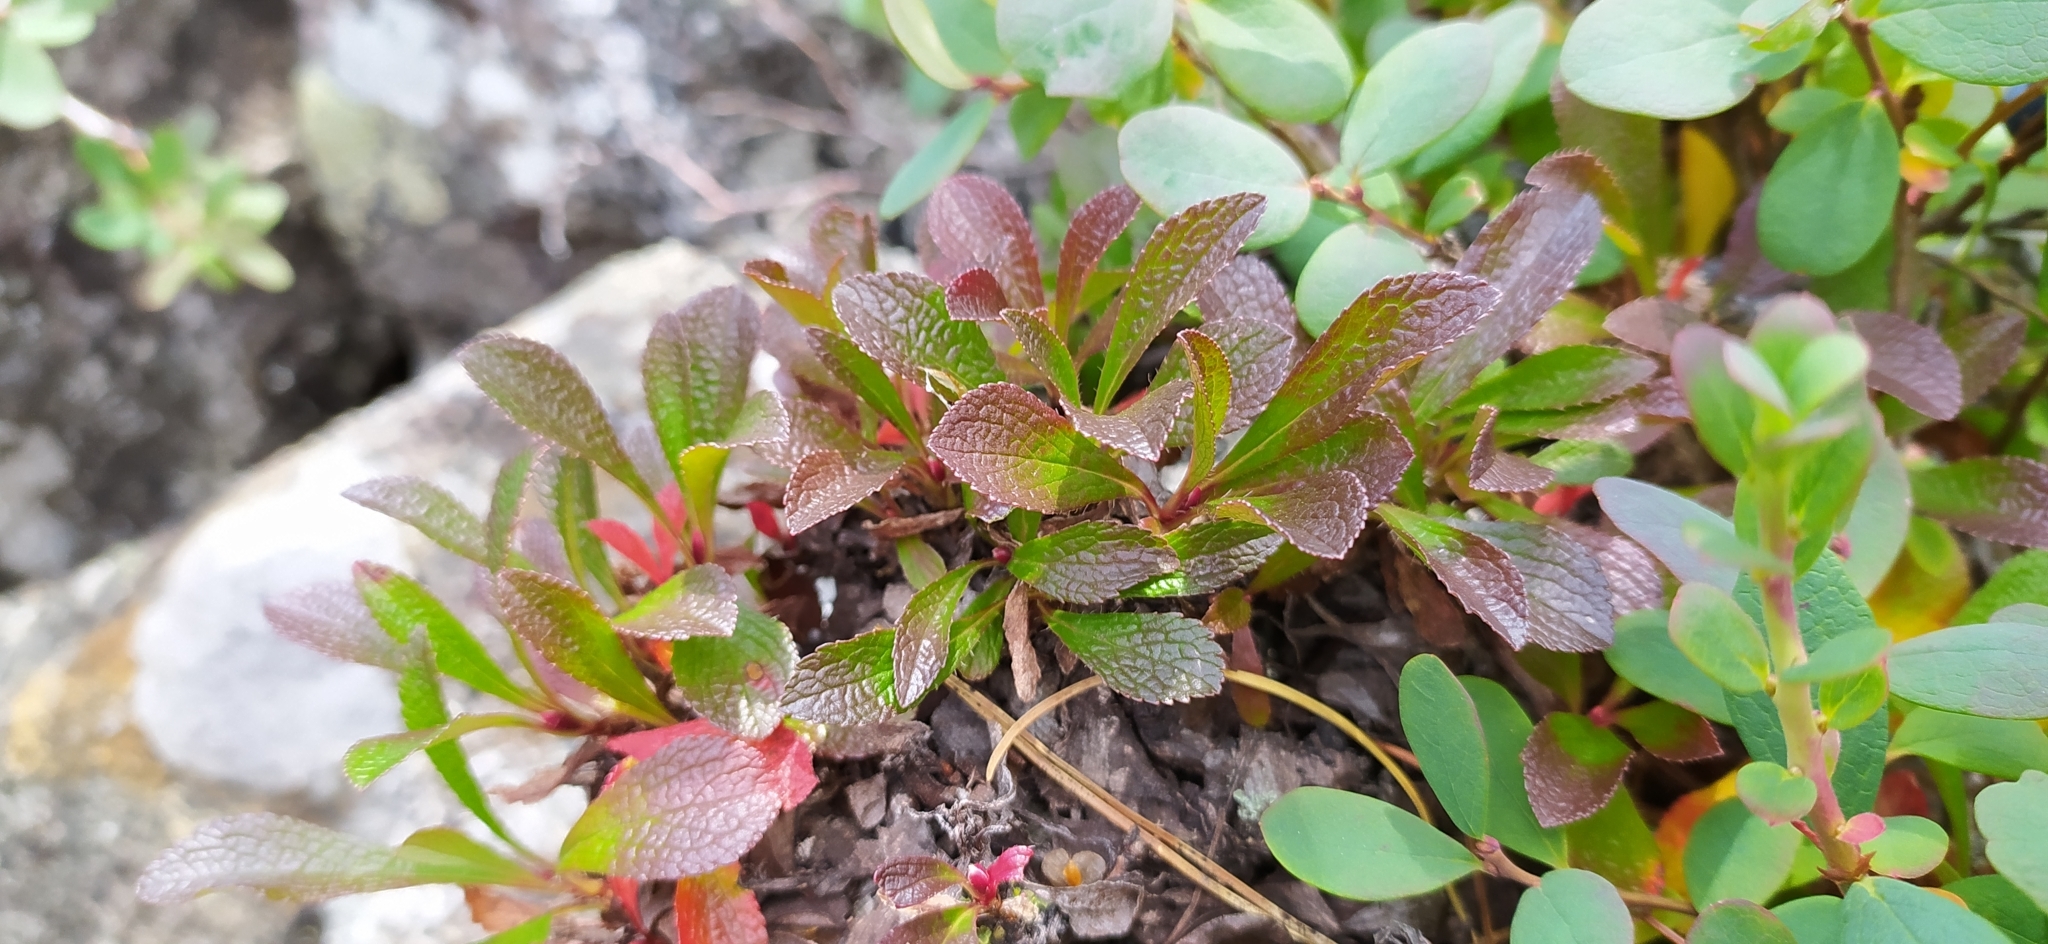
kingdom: Plantae
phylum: Tracheophyta
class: Magnoliopsida
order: Ericales
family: Ericaceae
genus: Arctostaphylos
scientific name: Arctostaphylos alpinus
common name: Alpine bearberry
